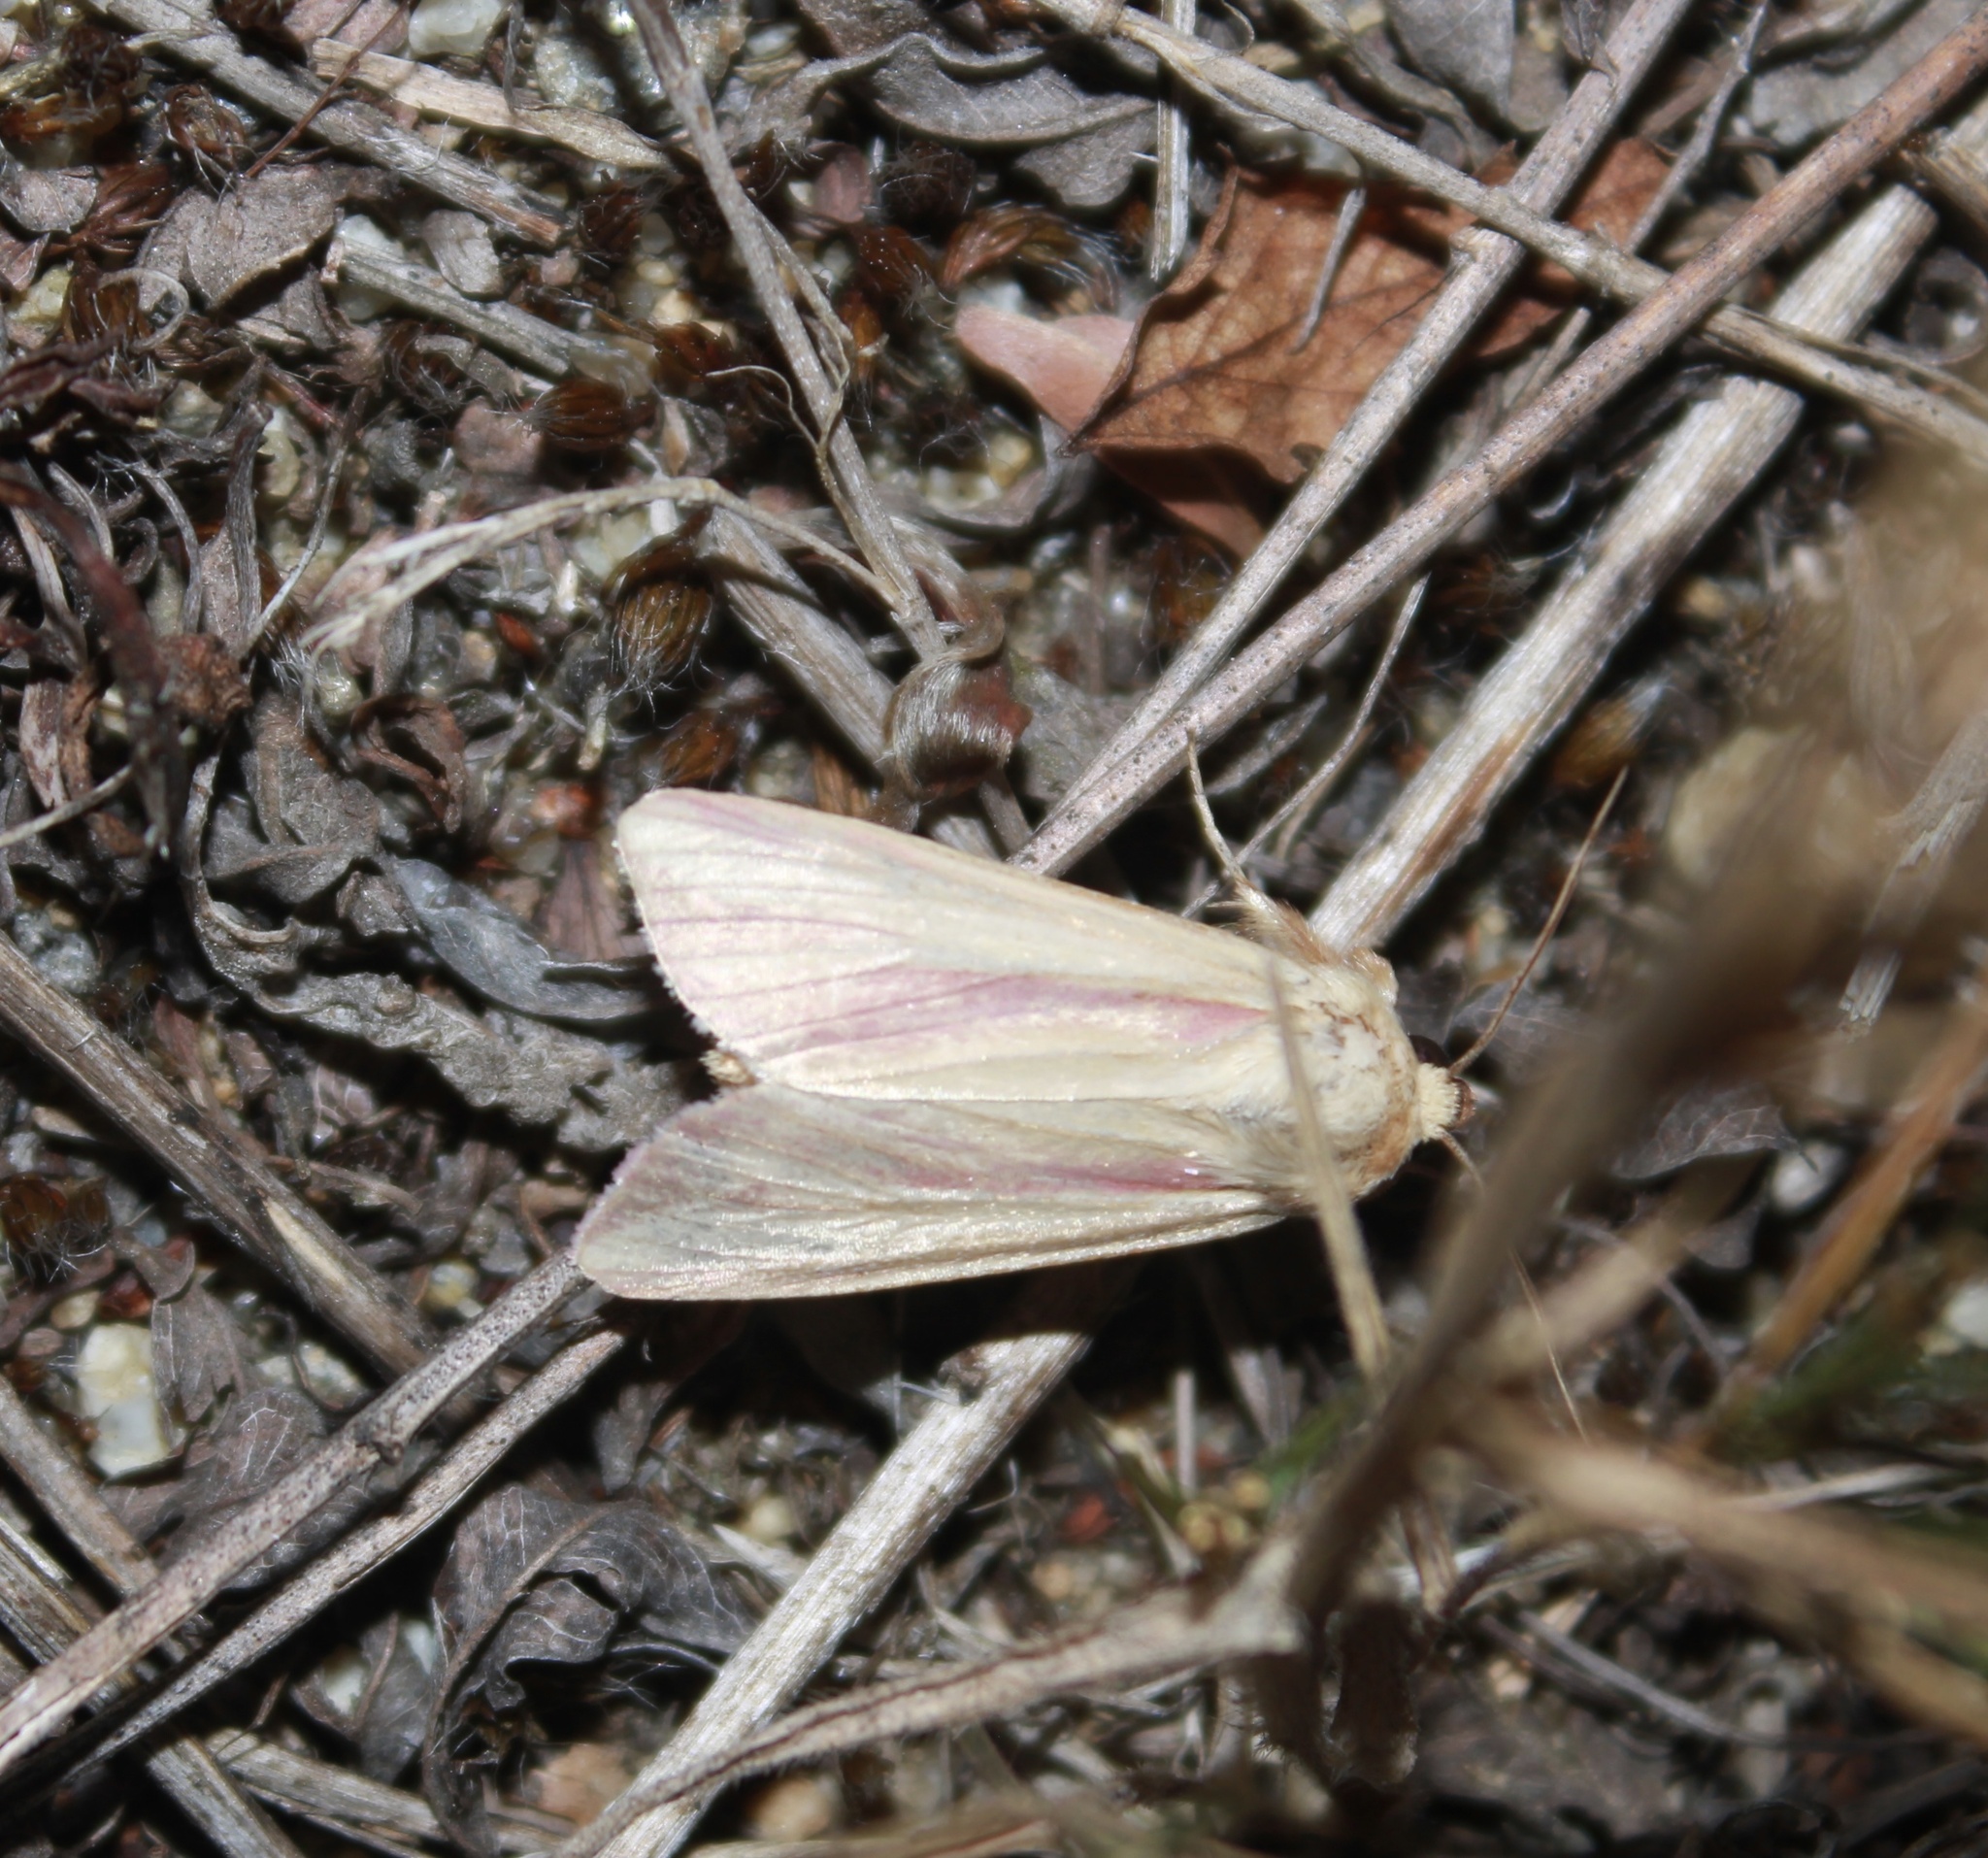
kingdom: Animalia
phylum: Arthropoda
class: Insecta
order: Lepidoptera
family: Noctuidae
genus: Dargida
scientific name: Dargida rubripennis
